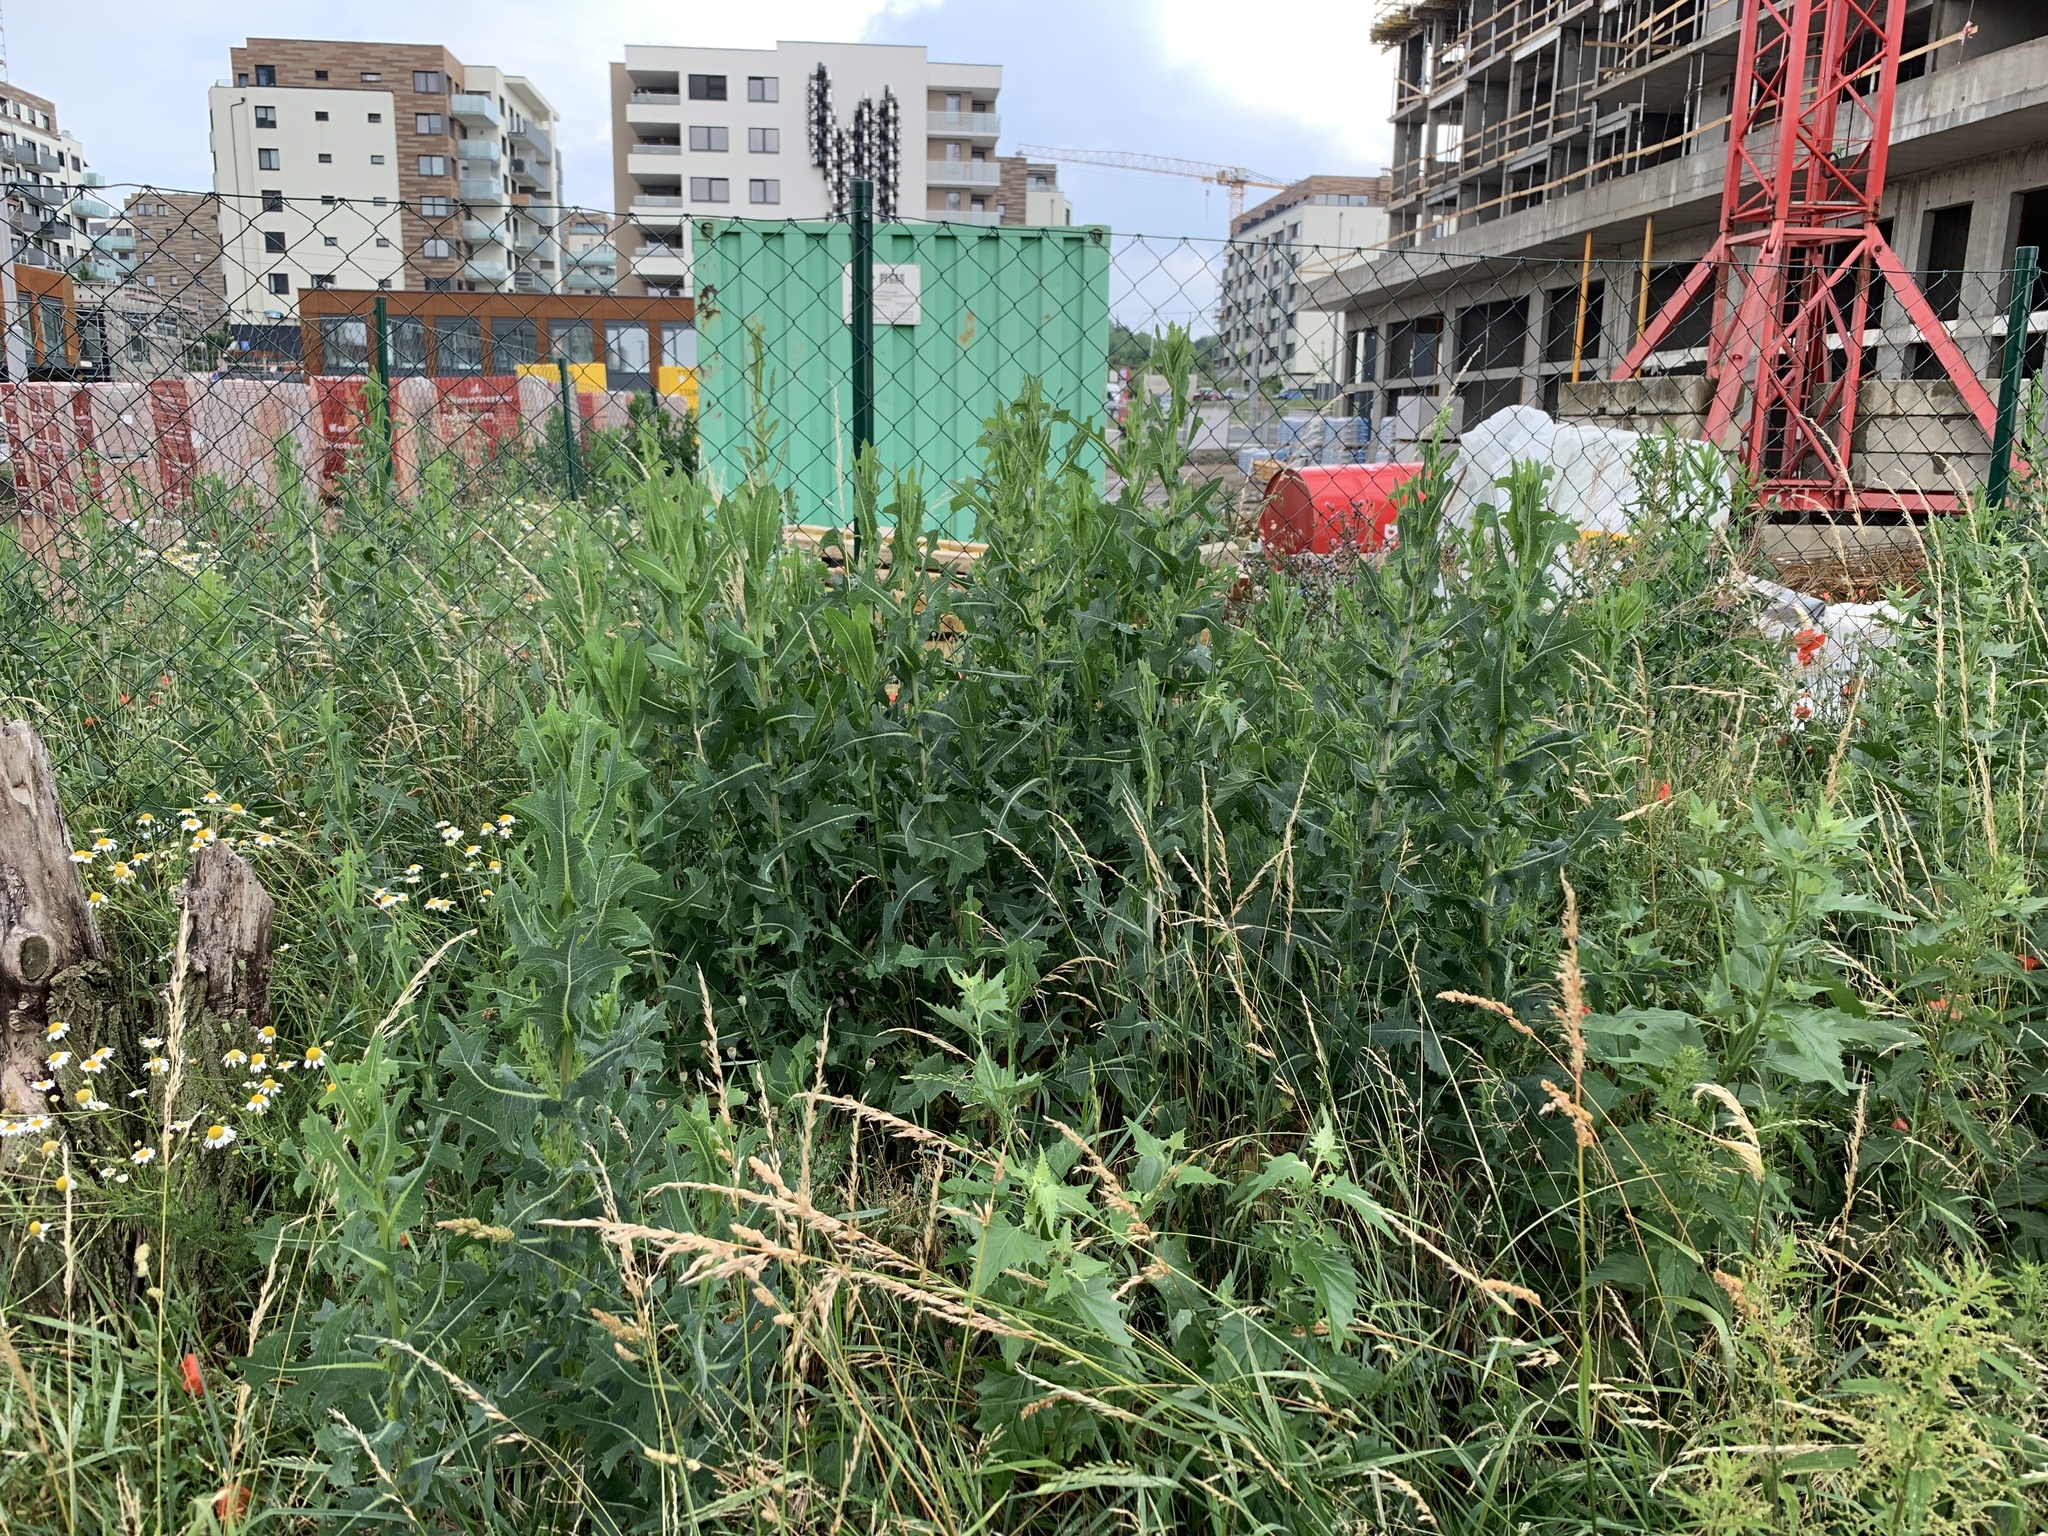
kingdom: Plantae
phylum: Tracheophyta
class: Magnoliopsida
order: Asterales
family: Asteraceae
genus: Lactuca
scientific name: Lactuca serriola
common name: Prickly lettuce
